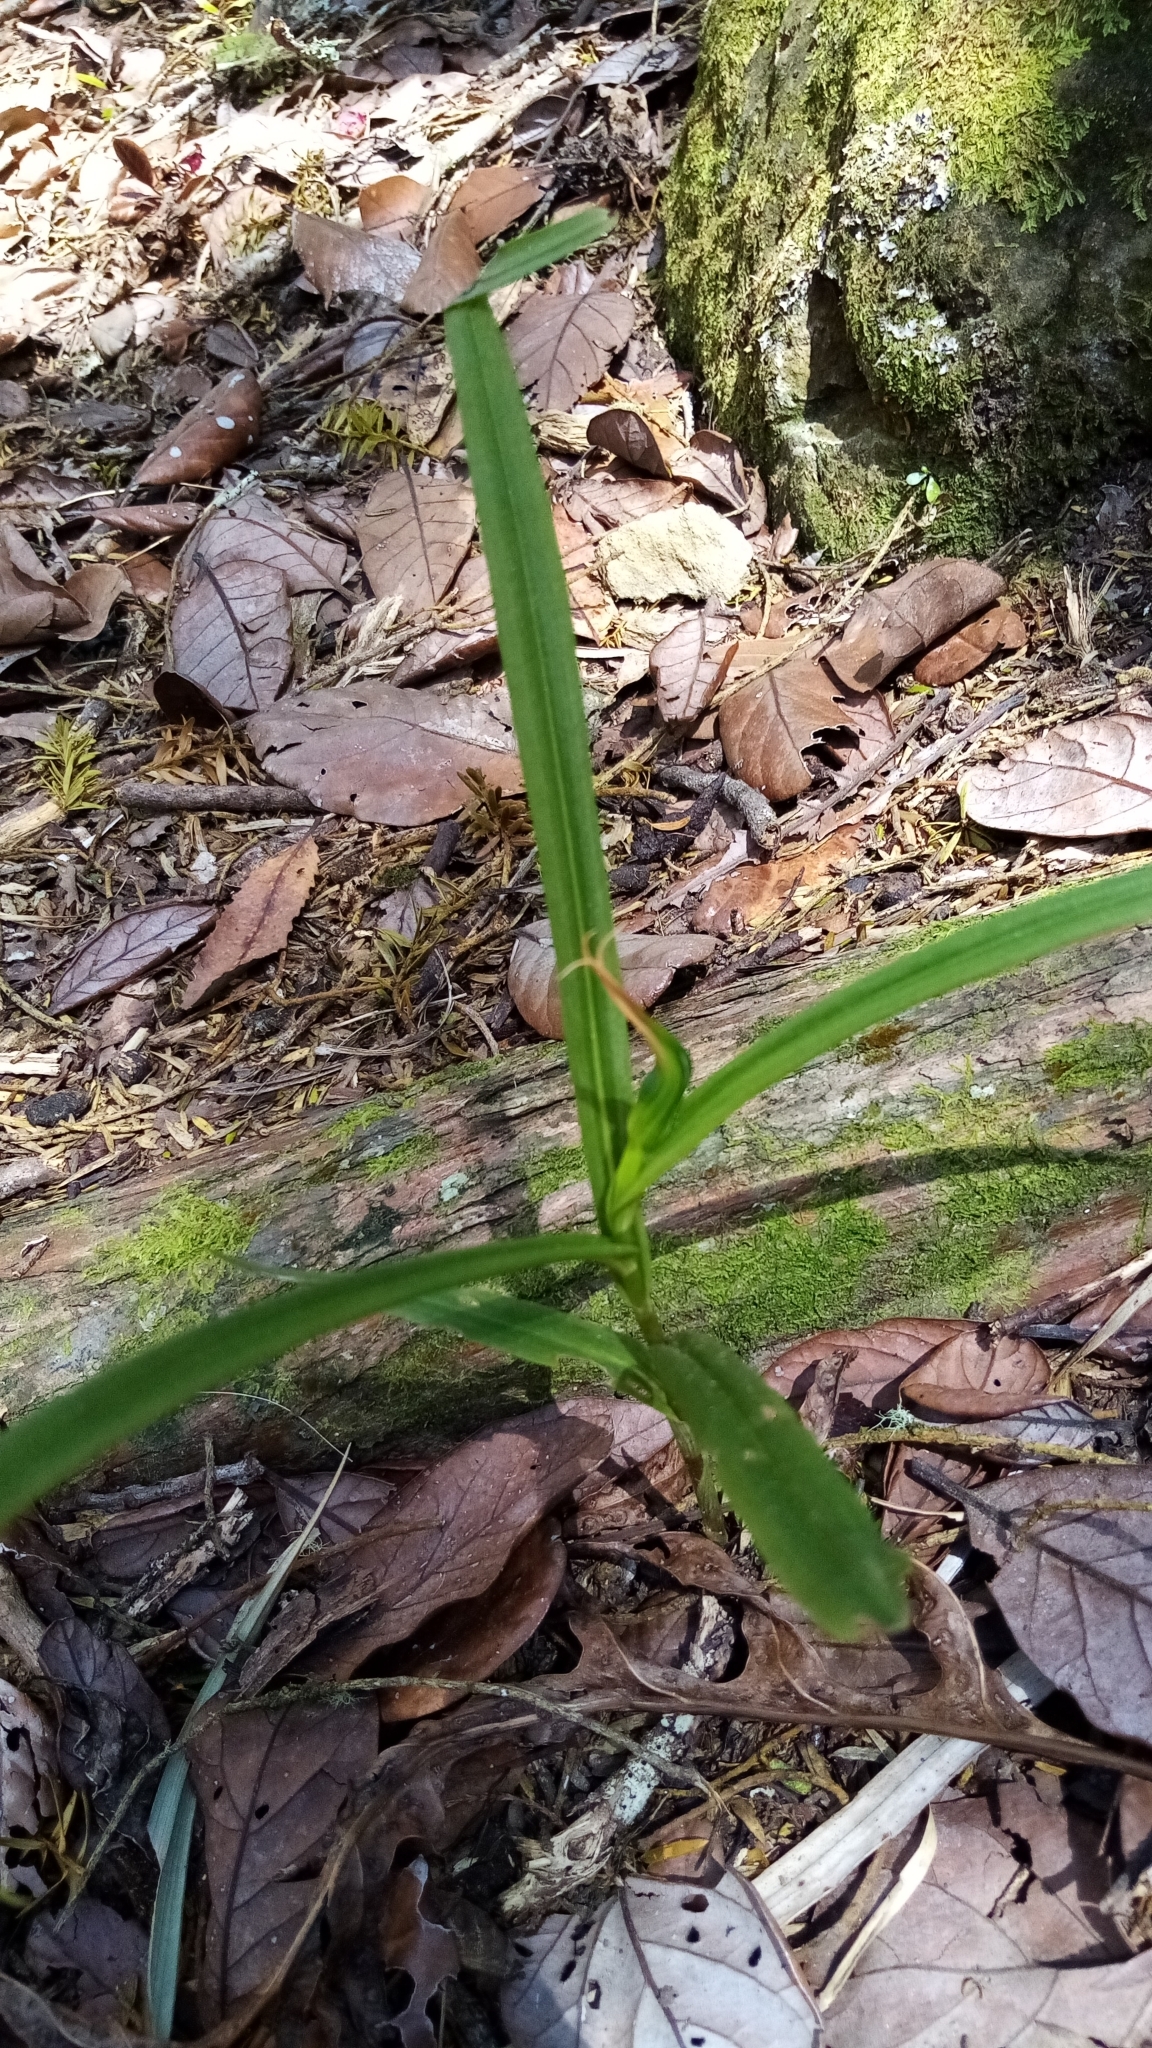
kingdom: Plantae
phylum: Tracheophyta
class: Liliopsida
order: Asparagales
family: Orchidaceae
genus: Pterostylis
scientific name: Pterostylis banksii
